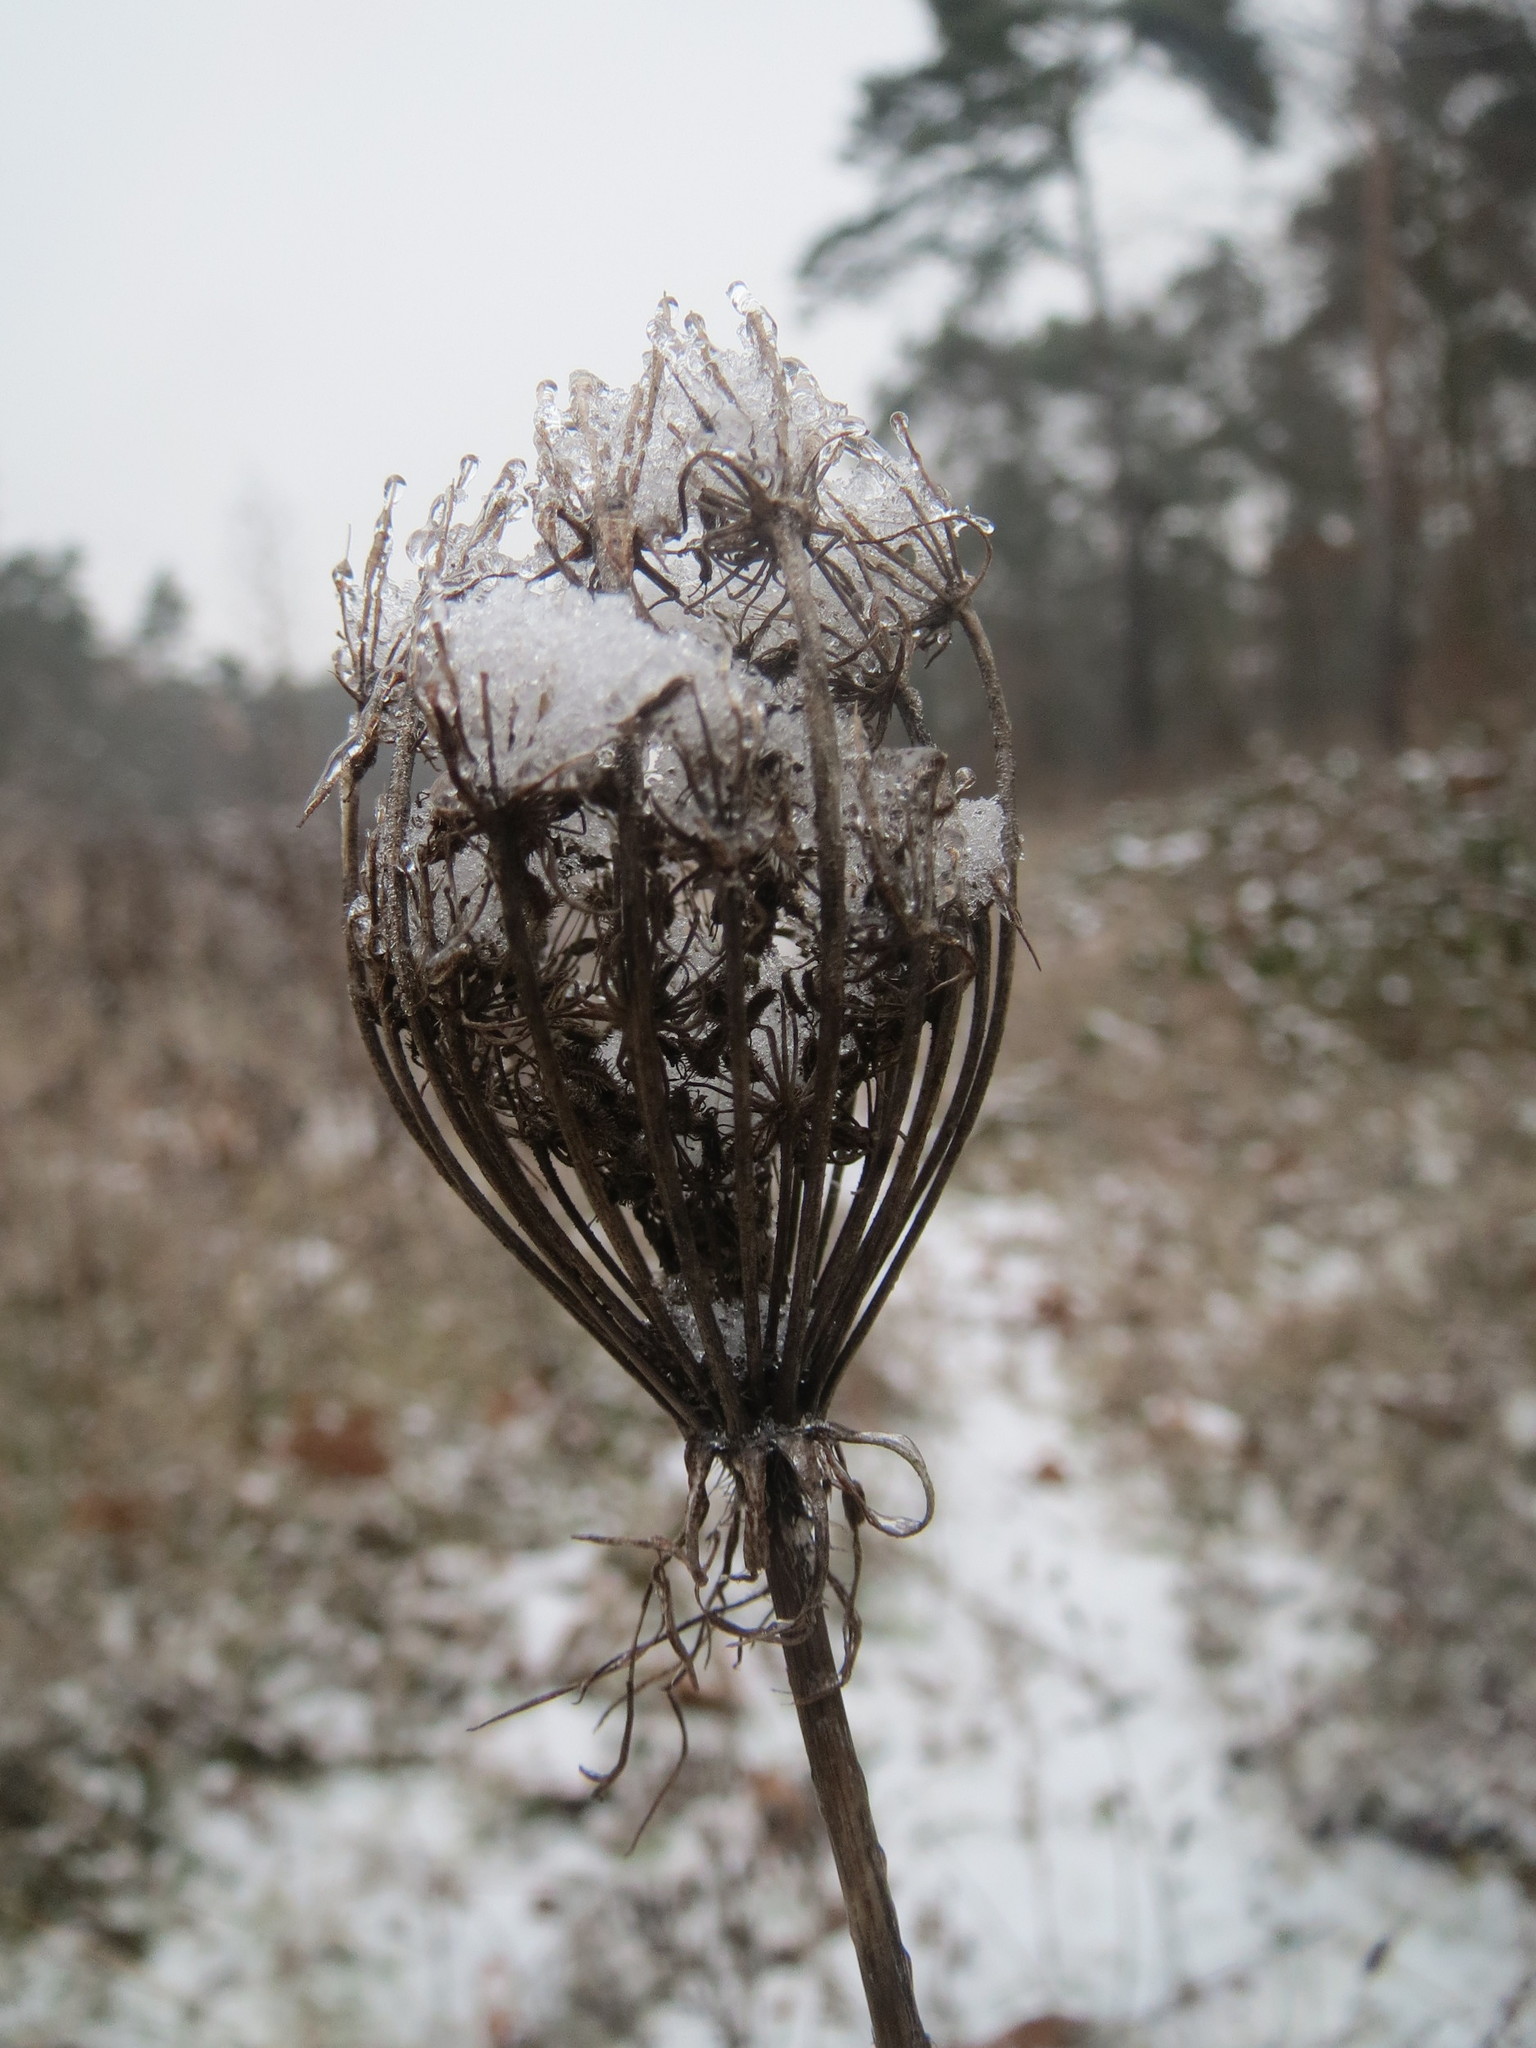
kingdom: Plantae
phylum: Tracheophyta
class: Magnoliopsida
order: Apiales
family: Apiaceae
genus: Daucus
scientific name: Daucus carota
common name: Wild carrot
